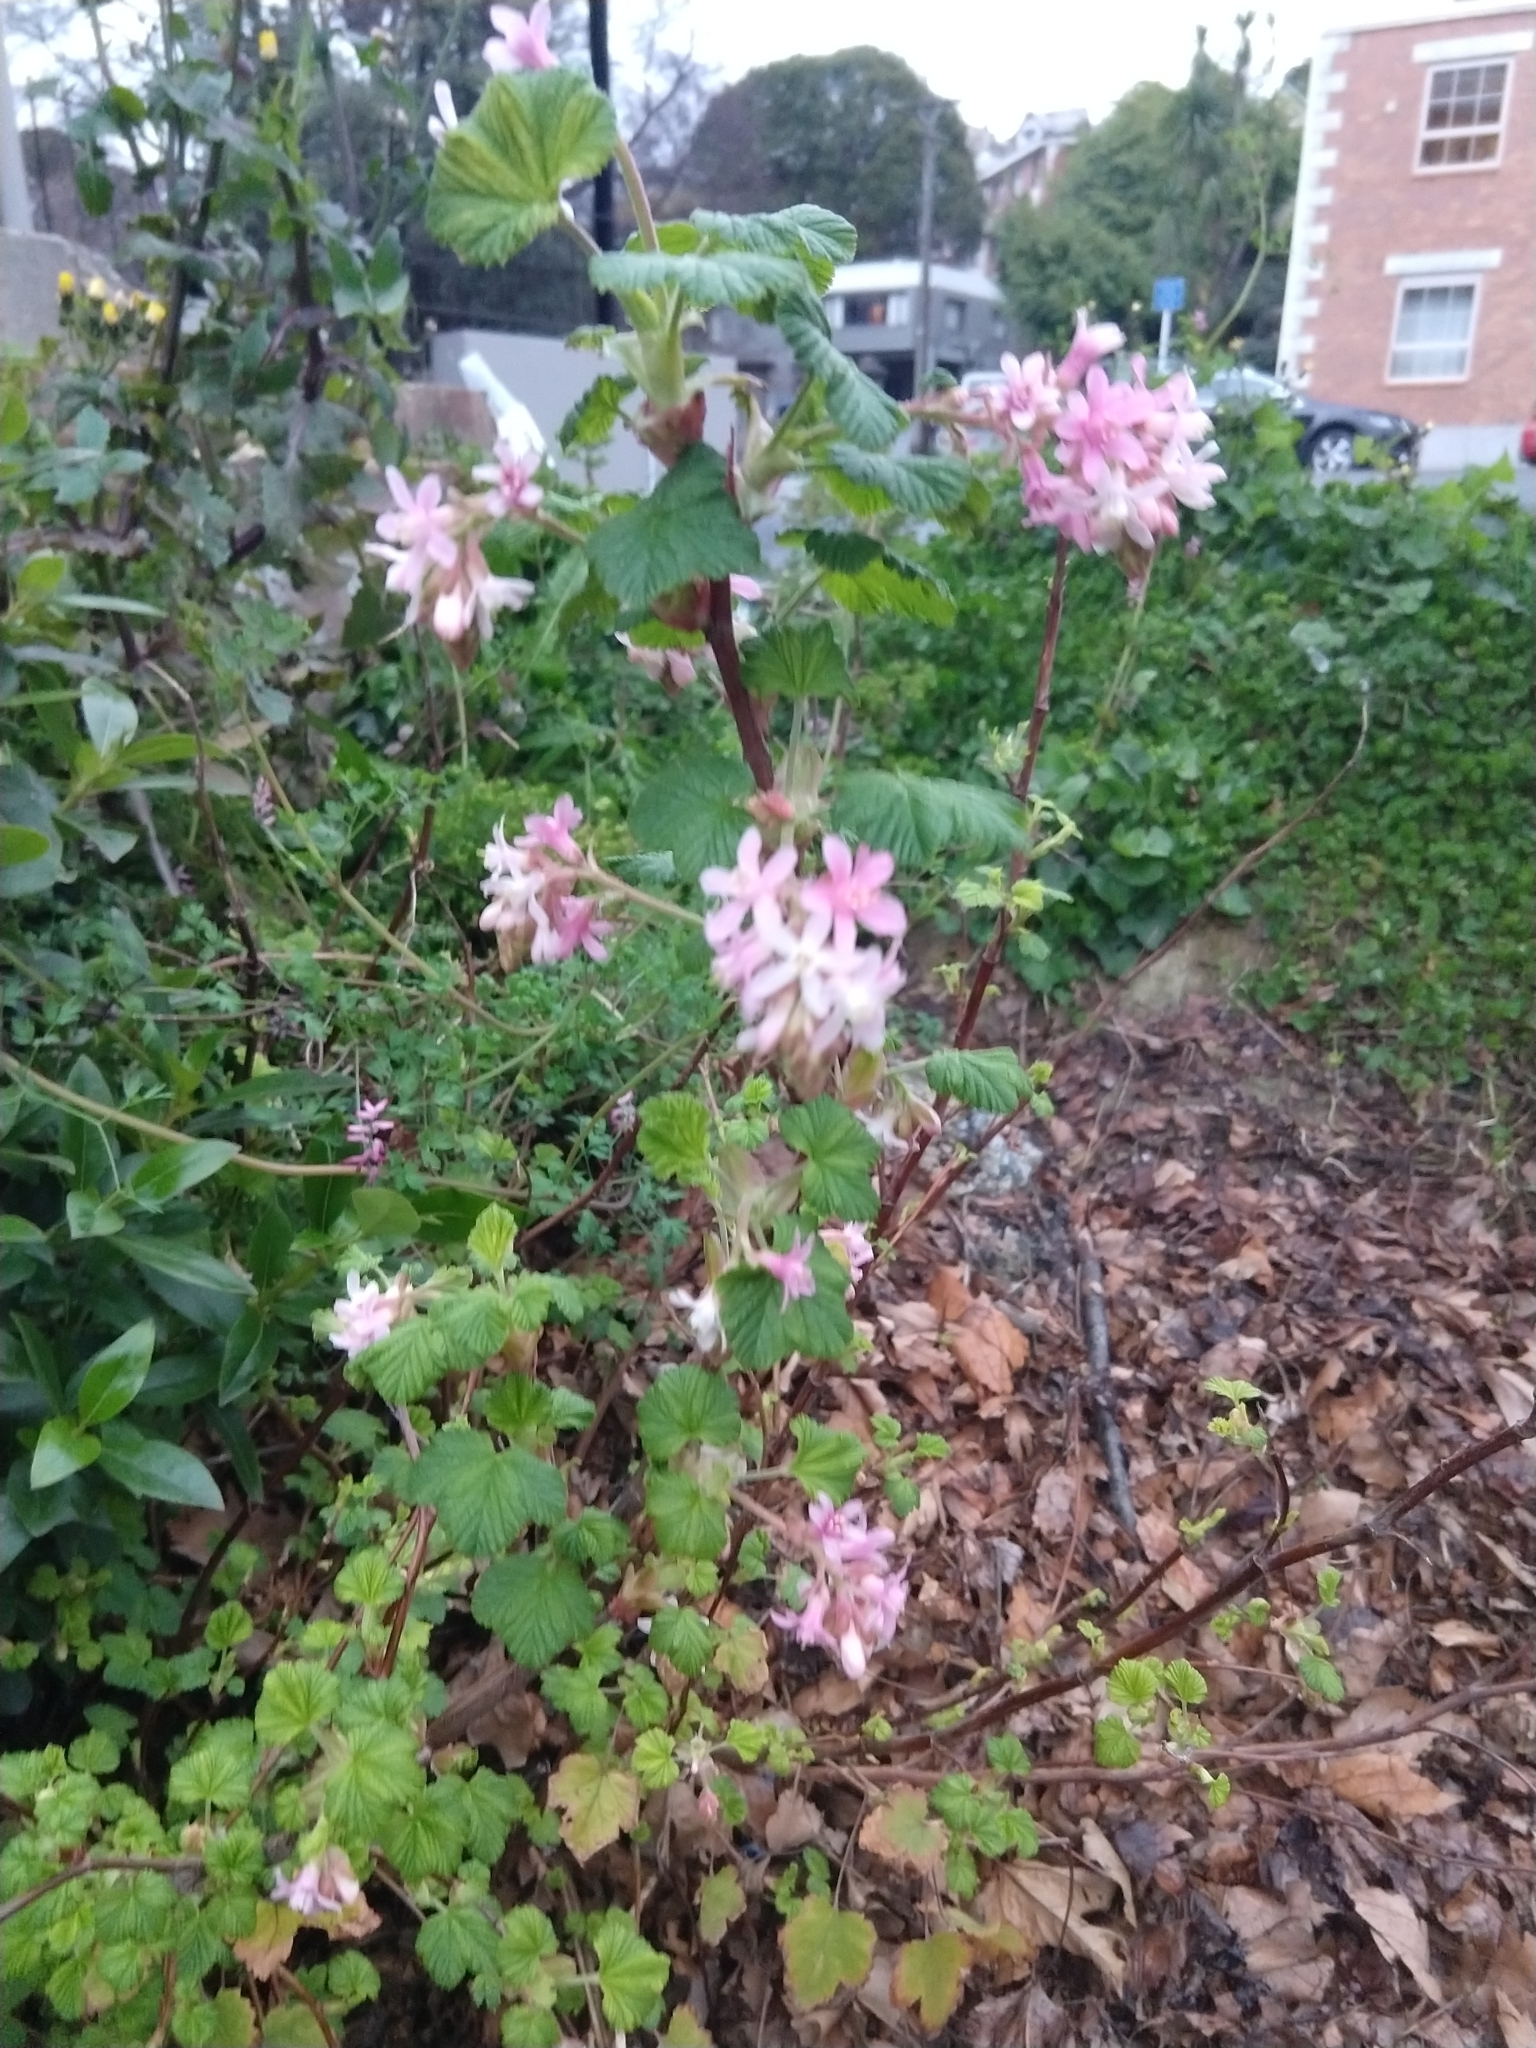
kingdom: Plantae
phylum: Tracheophyta
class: Magnoliopsida
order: Saxifragales
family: Grossulariaceae
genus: Ribes
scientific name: Ribes sanguineum
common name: Flowering currant
